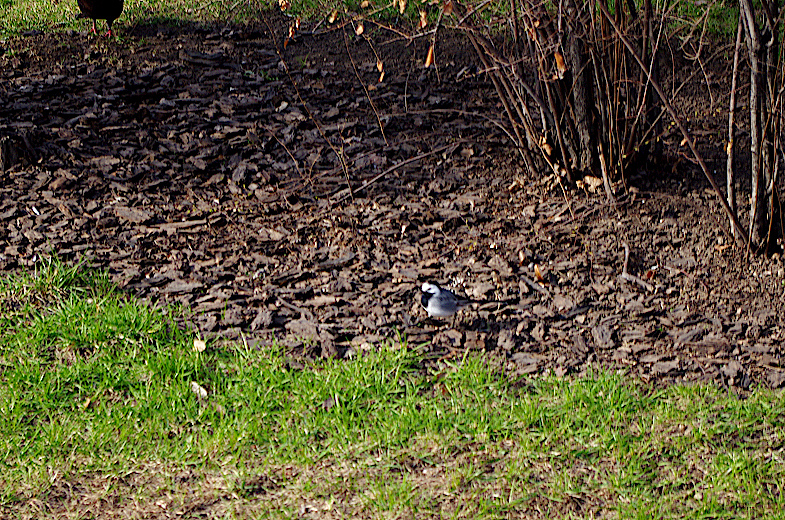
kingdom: Animalia
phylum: Chordata
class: Aves
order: Passeriformes
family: Motacillidae
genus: Motacilla
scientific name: Motacilla alba
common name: White wagtail
